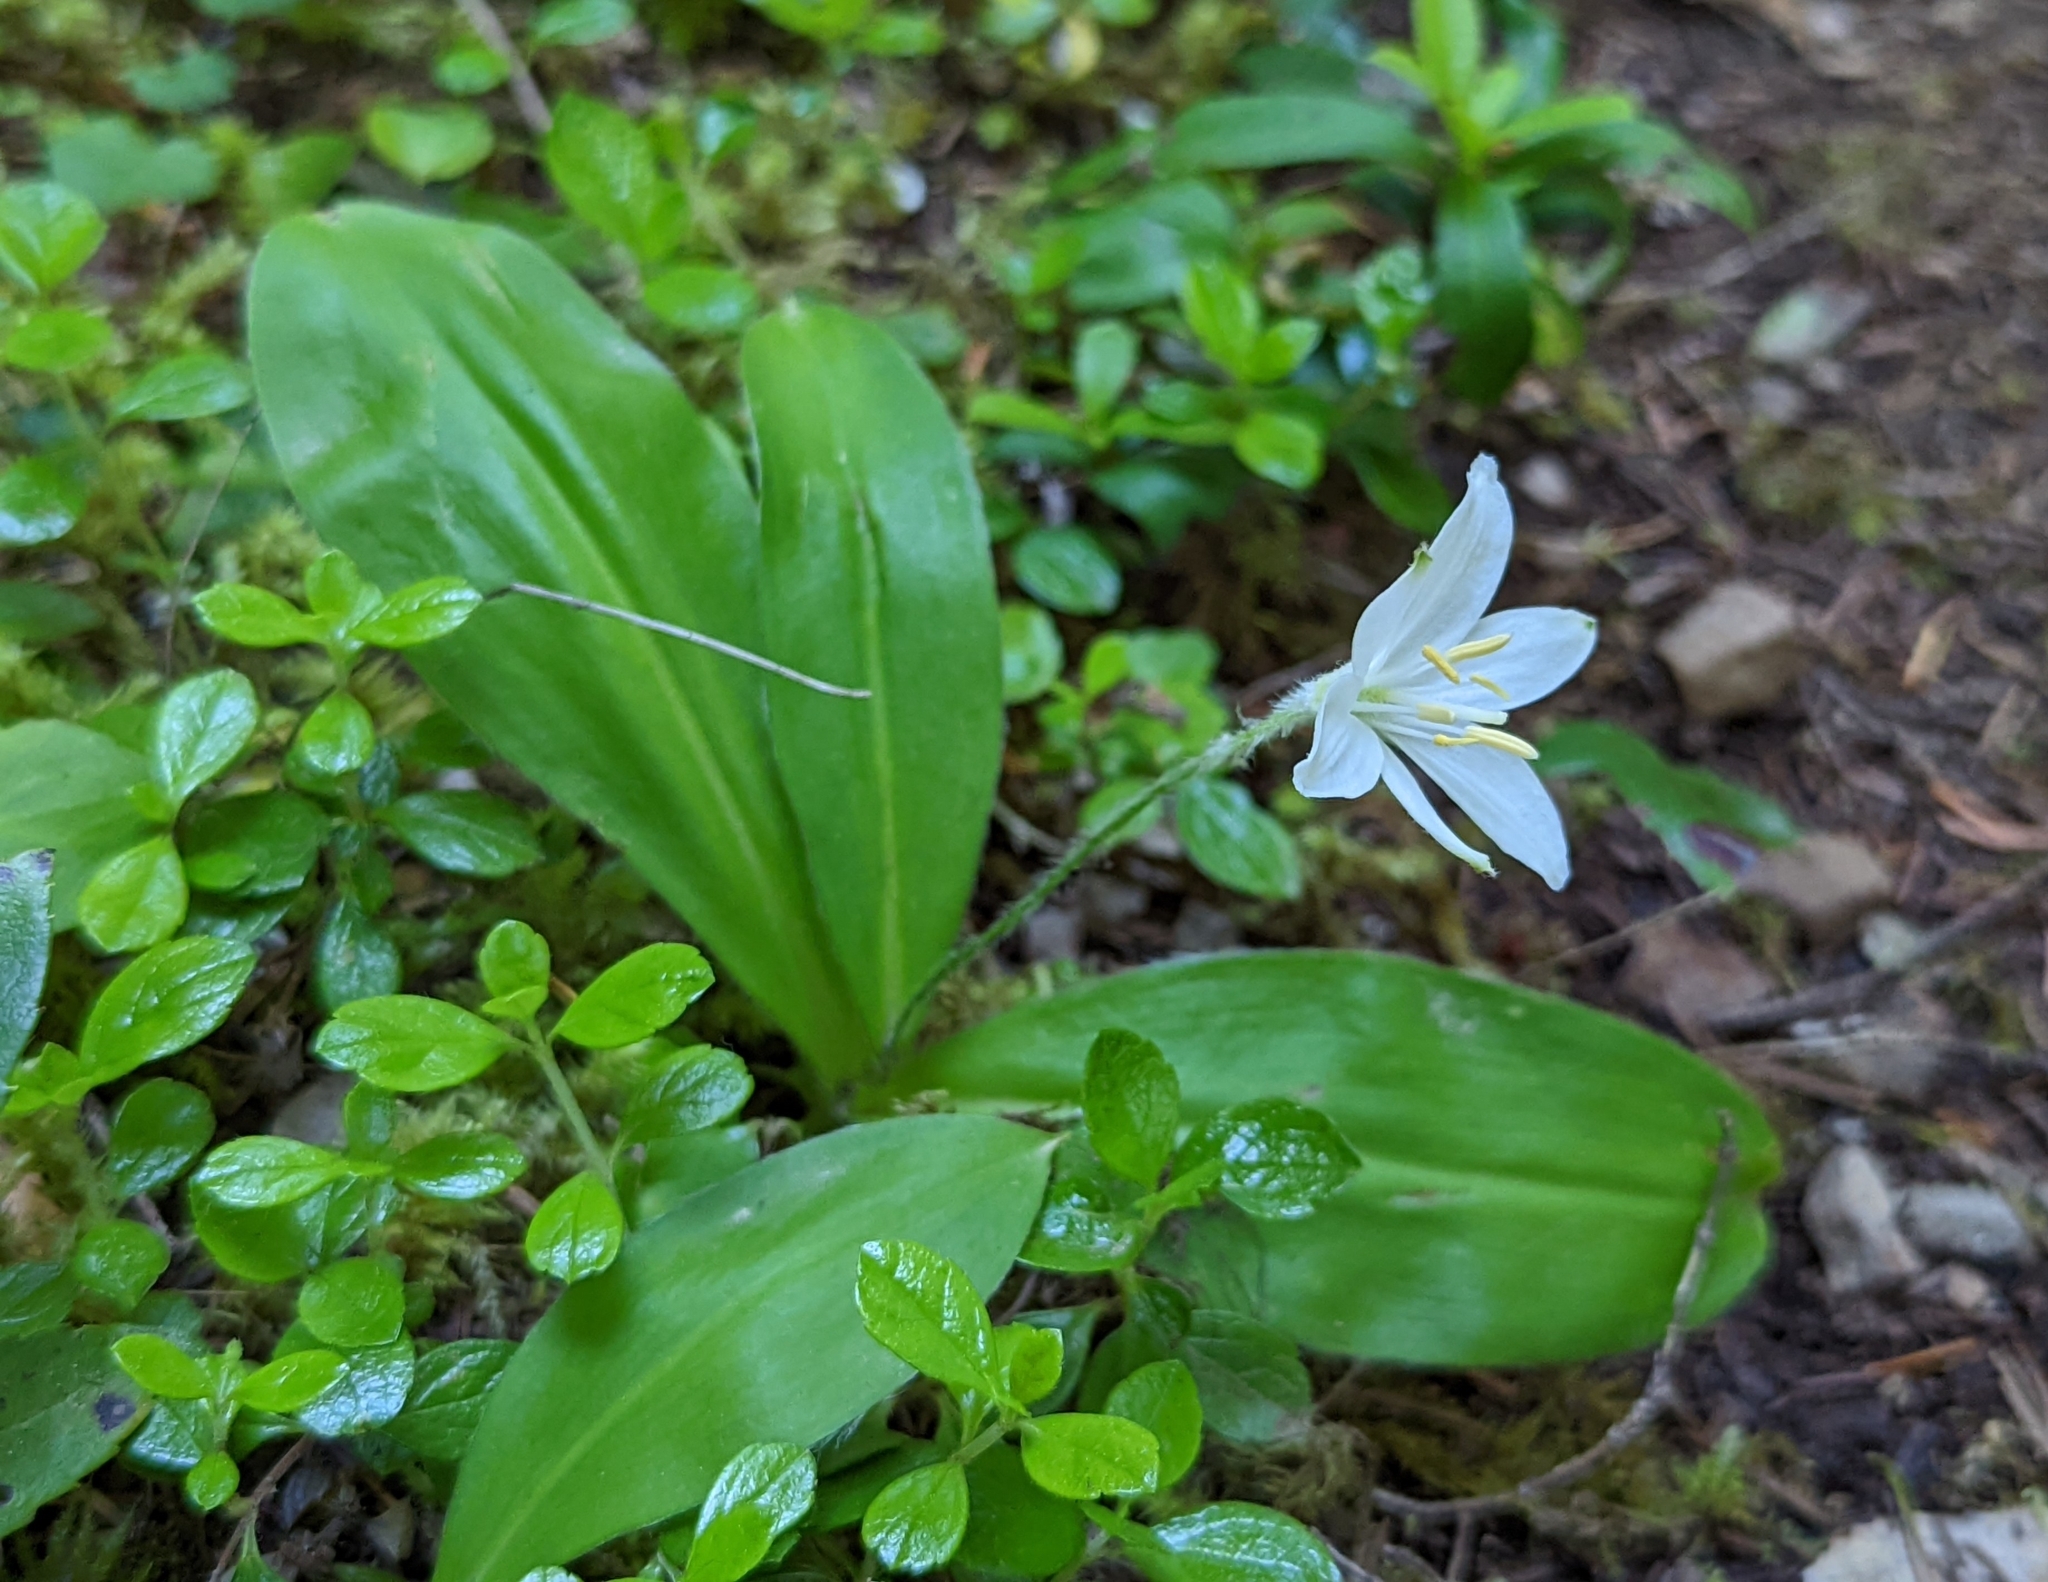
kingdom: Plantae
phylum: Tracheophyta
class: Liliopsida
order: Liliales
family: Liliaceae
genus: Clintonia
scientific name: Clintonia uniflora
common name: Queen's cup
